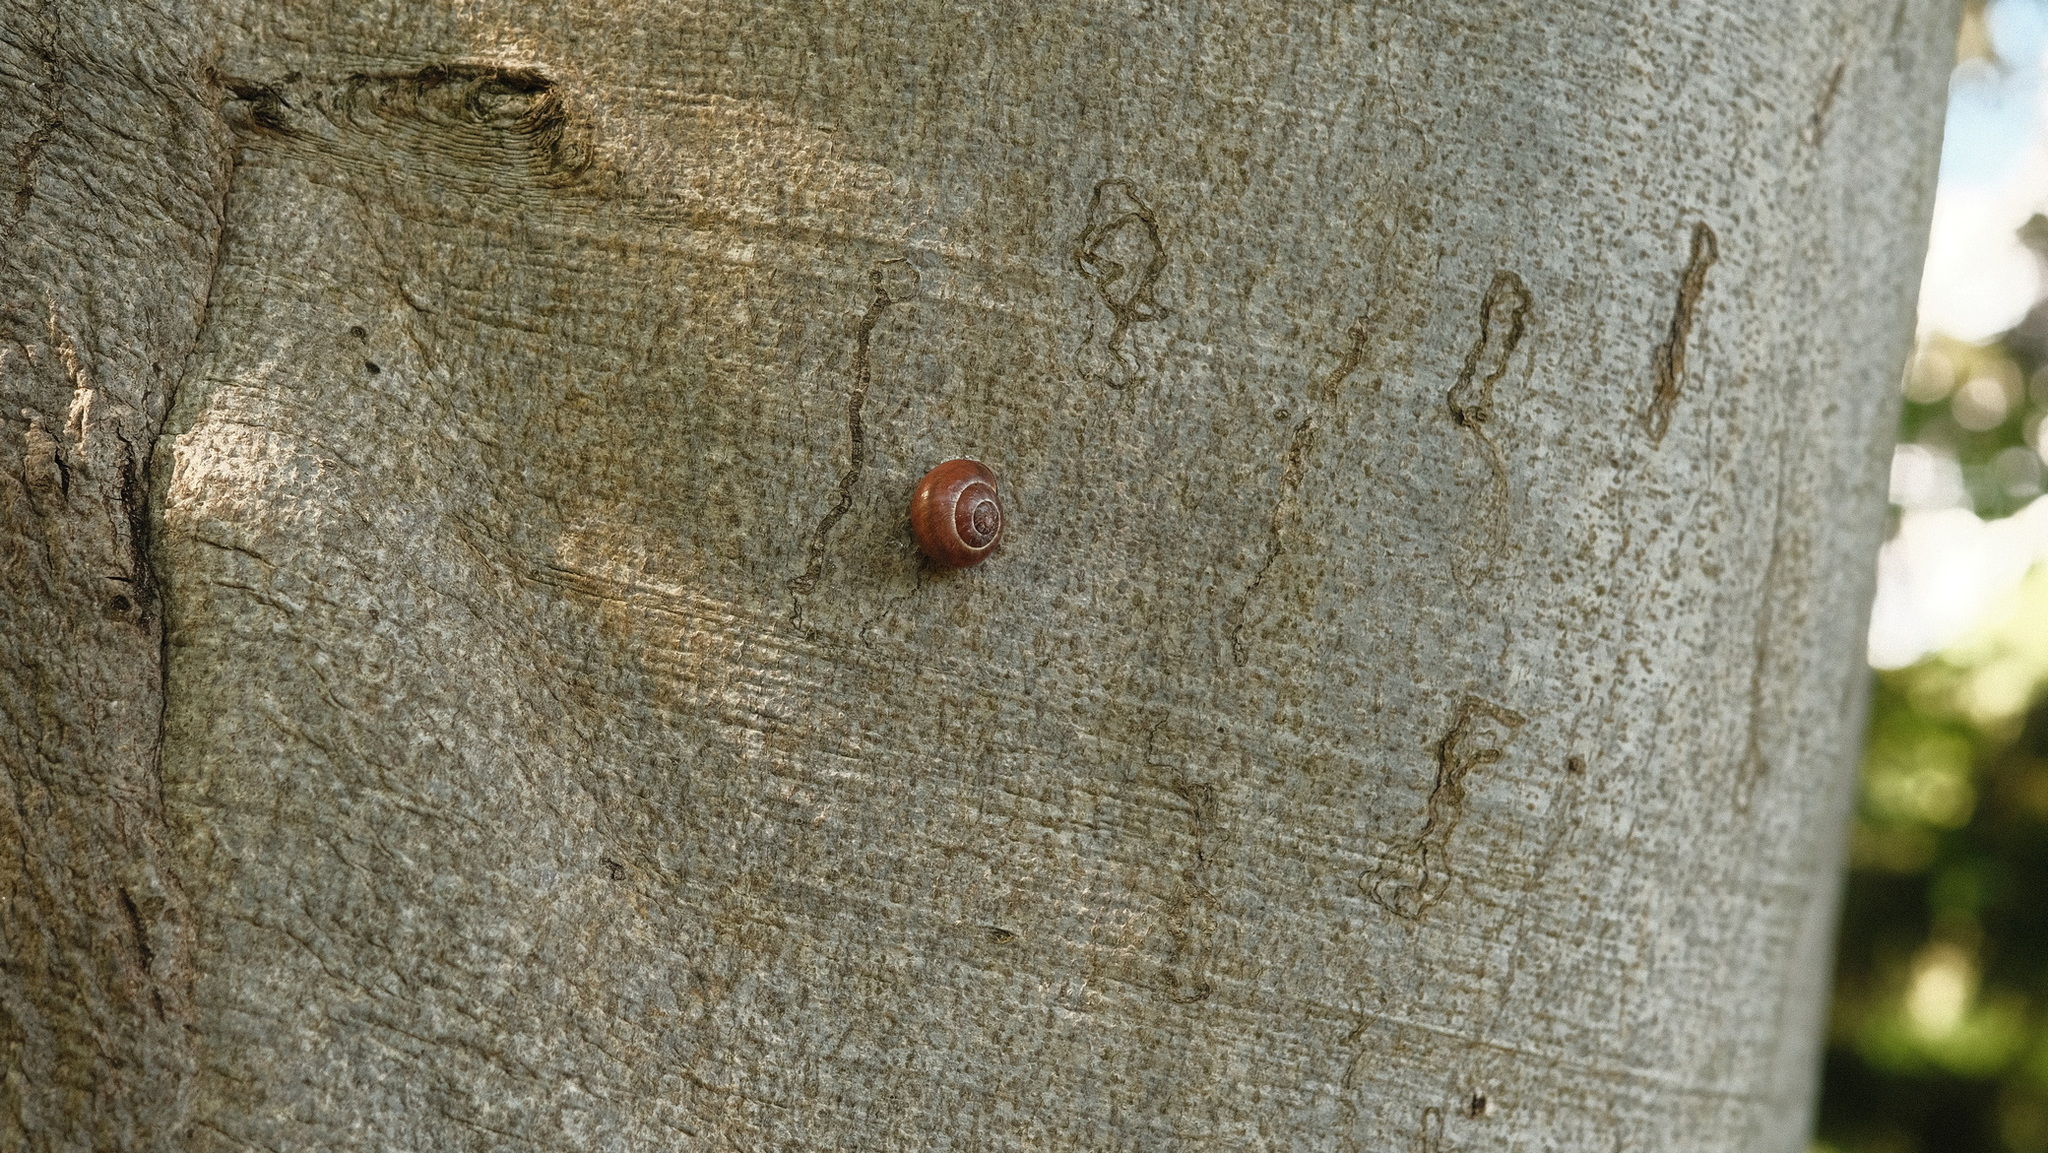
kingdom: Animalia
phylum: Mollusca
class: Gastropoda
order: Stylommatophora
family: Helicidae
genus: Cepaea
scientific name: Cepaea nemoralis
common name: Grovesnail
